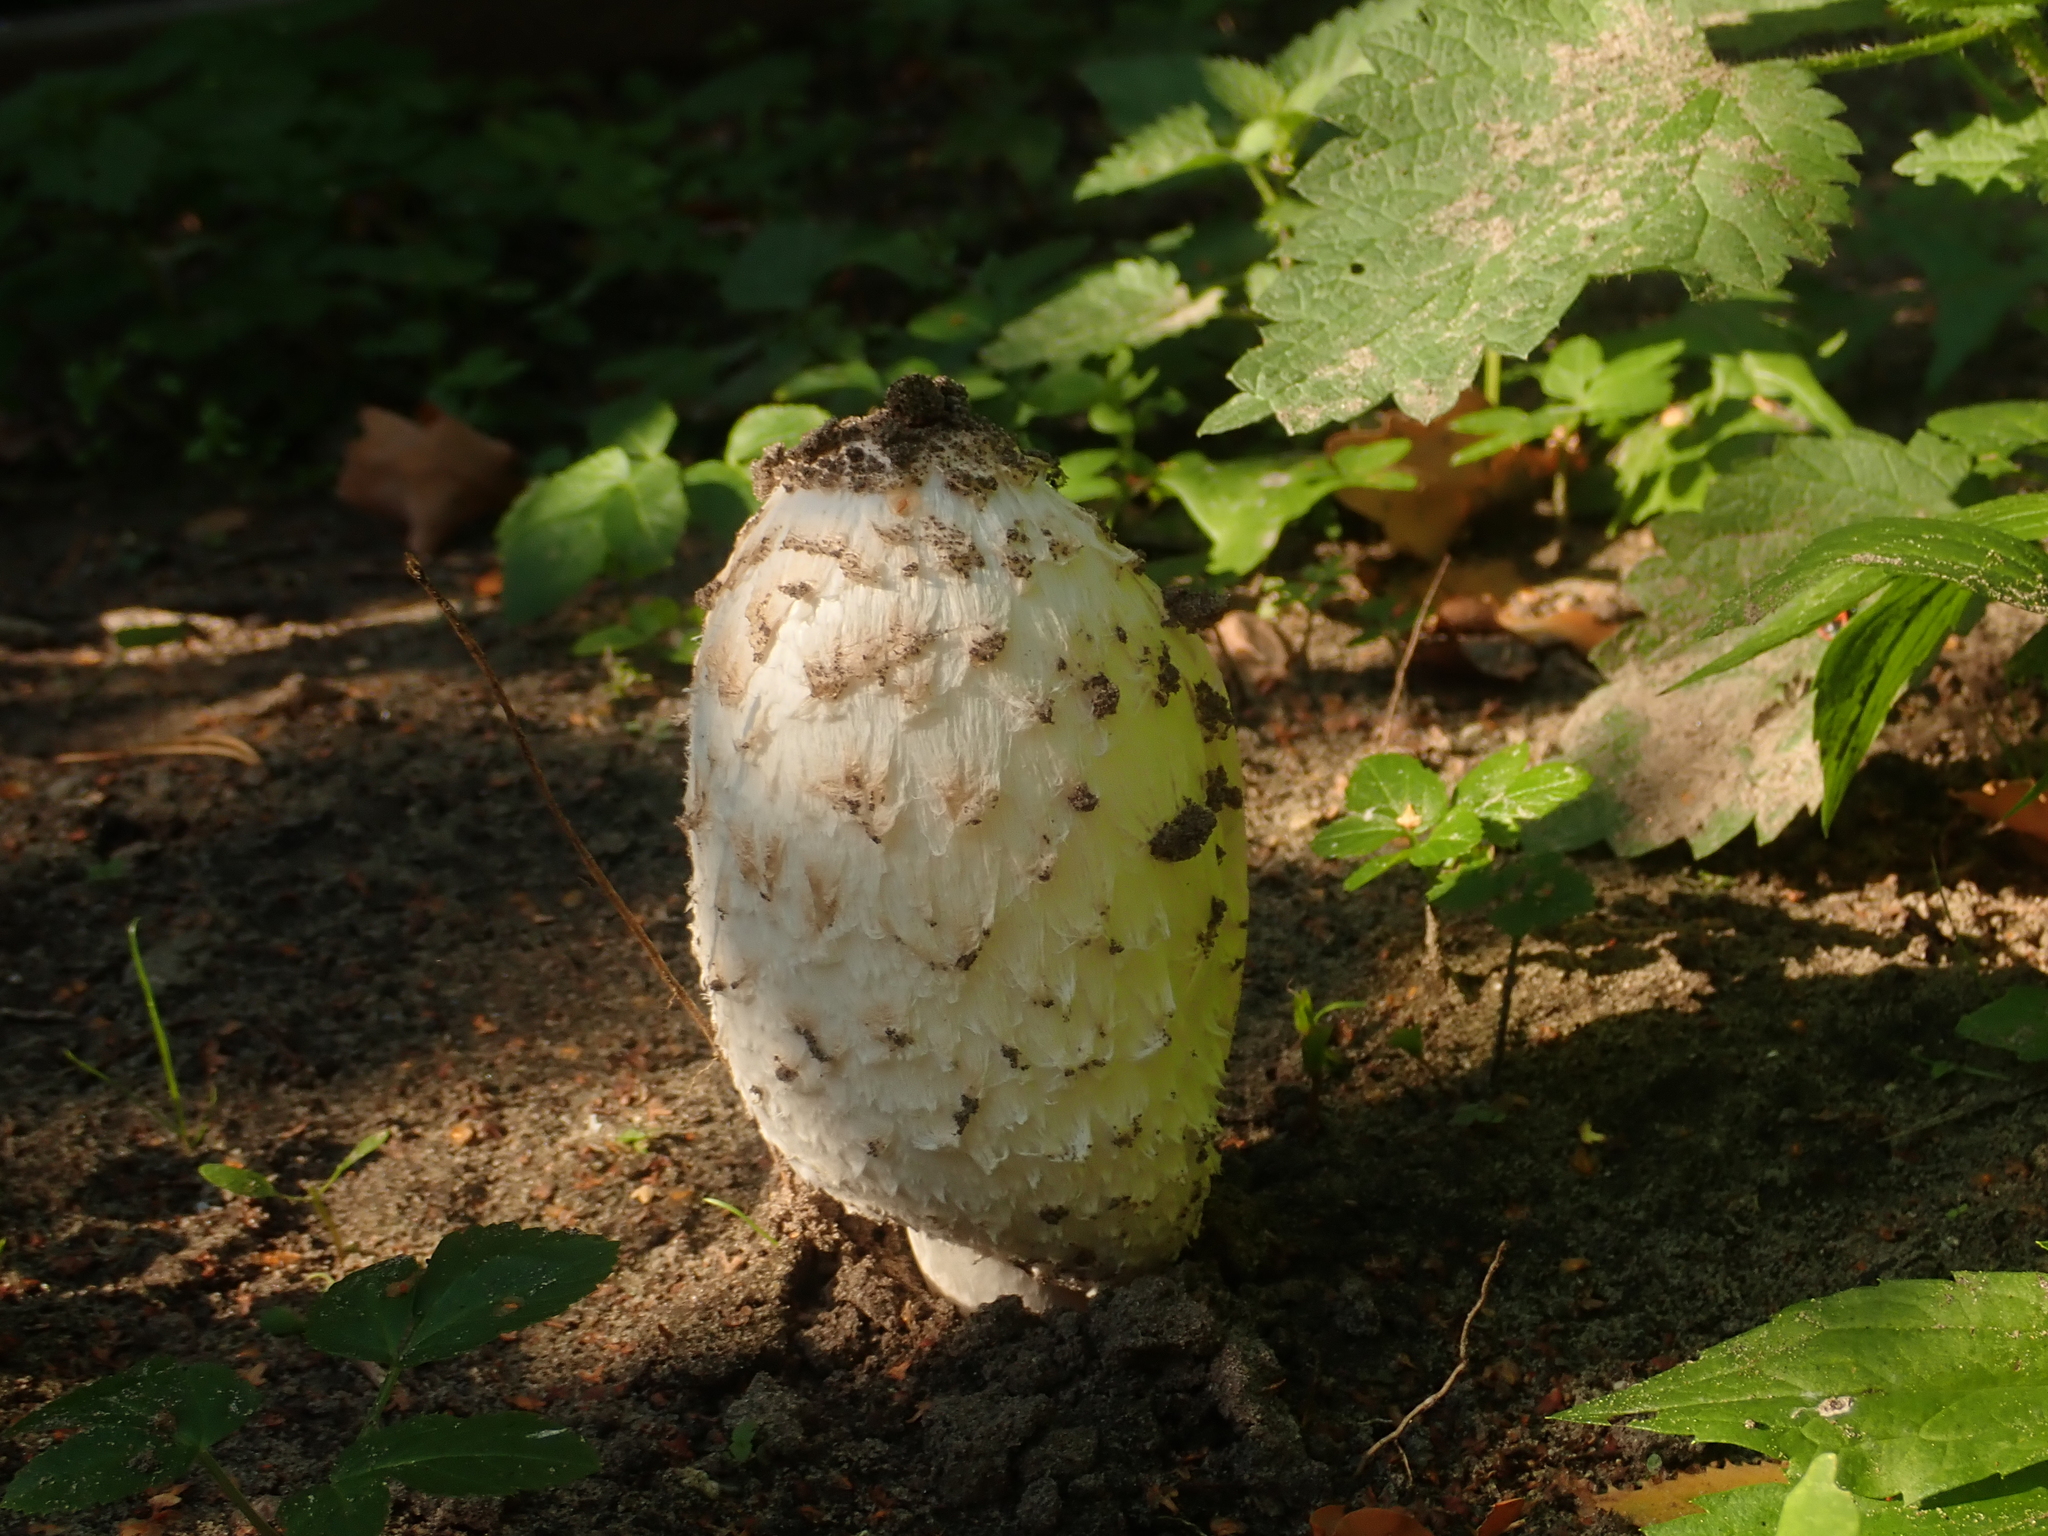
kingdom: Fungi
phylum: Basidiomycota
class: Agaricomycetes
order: Agaricales
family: Agaricaceae
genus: Coprinus
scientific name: Coprinus comatus
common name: Lawyer's wig
